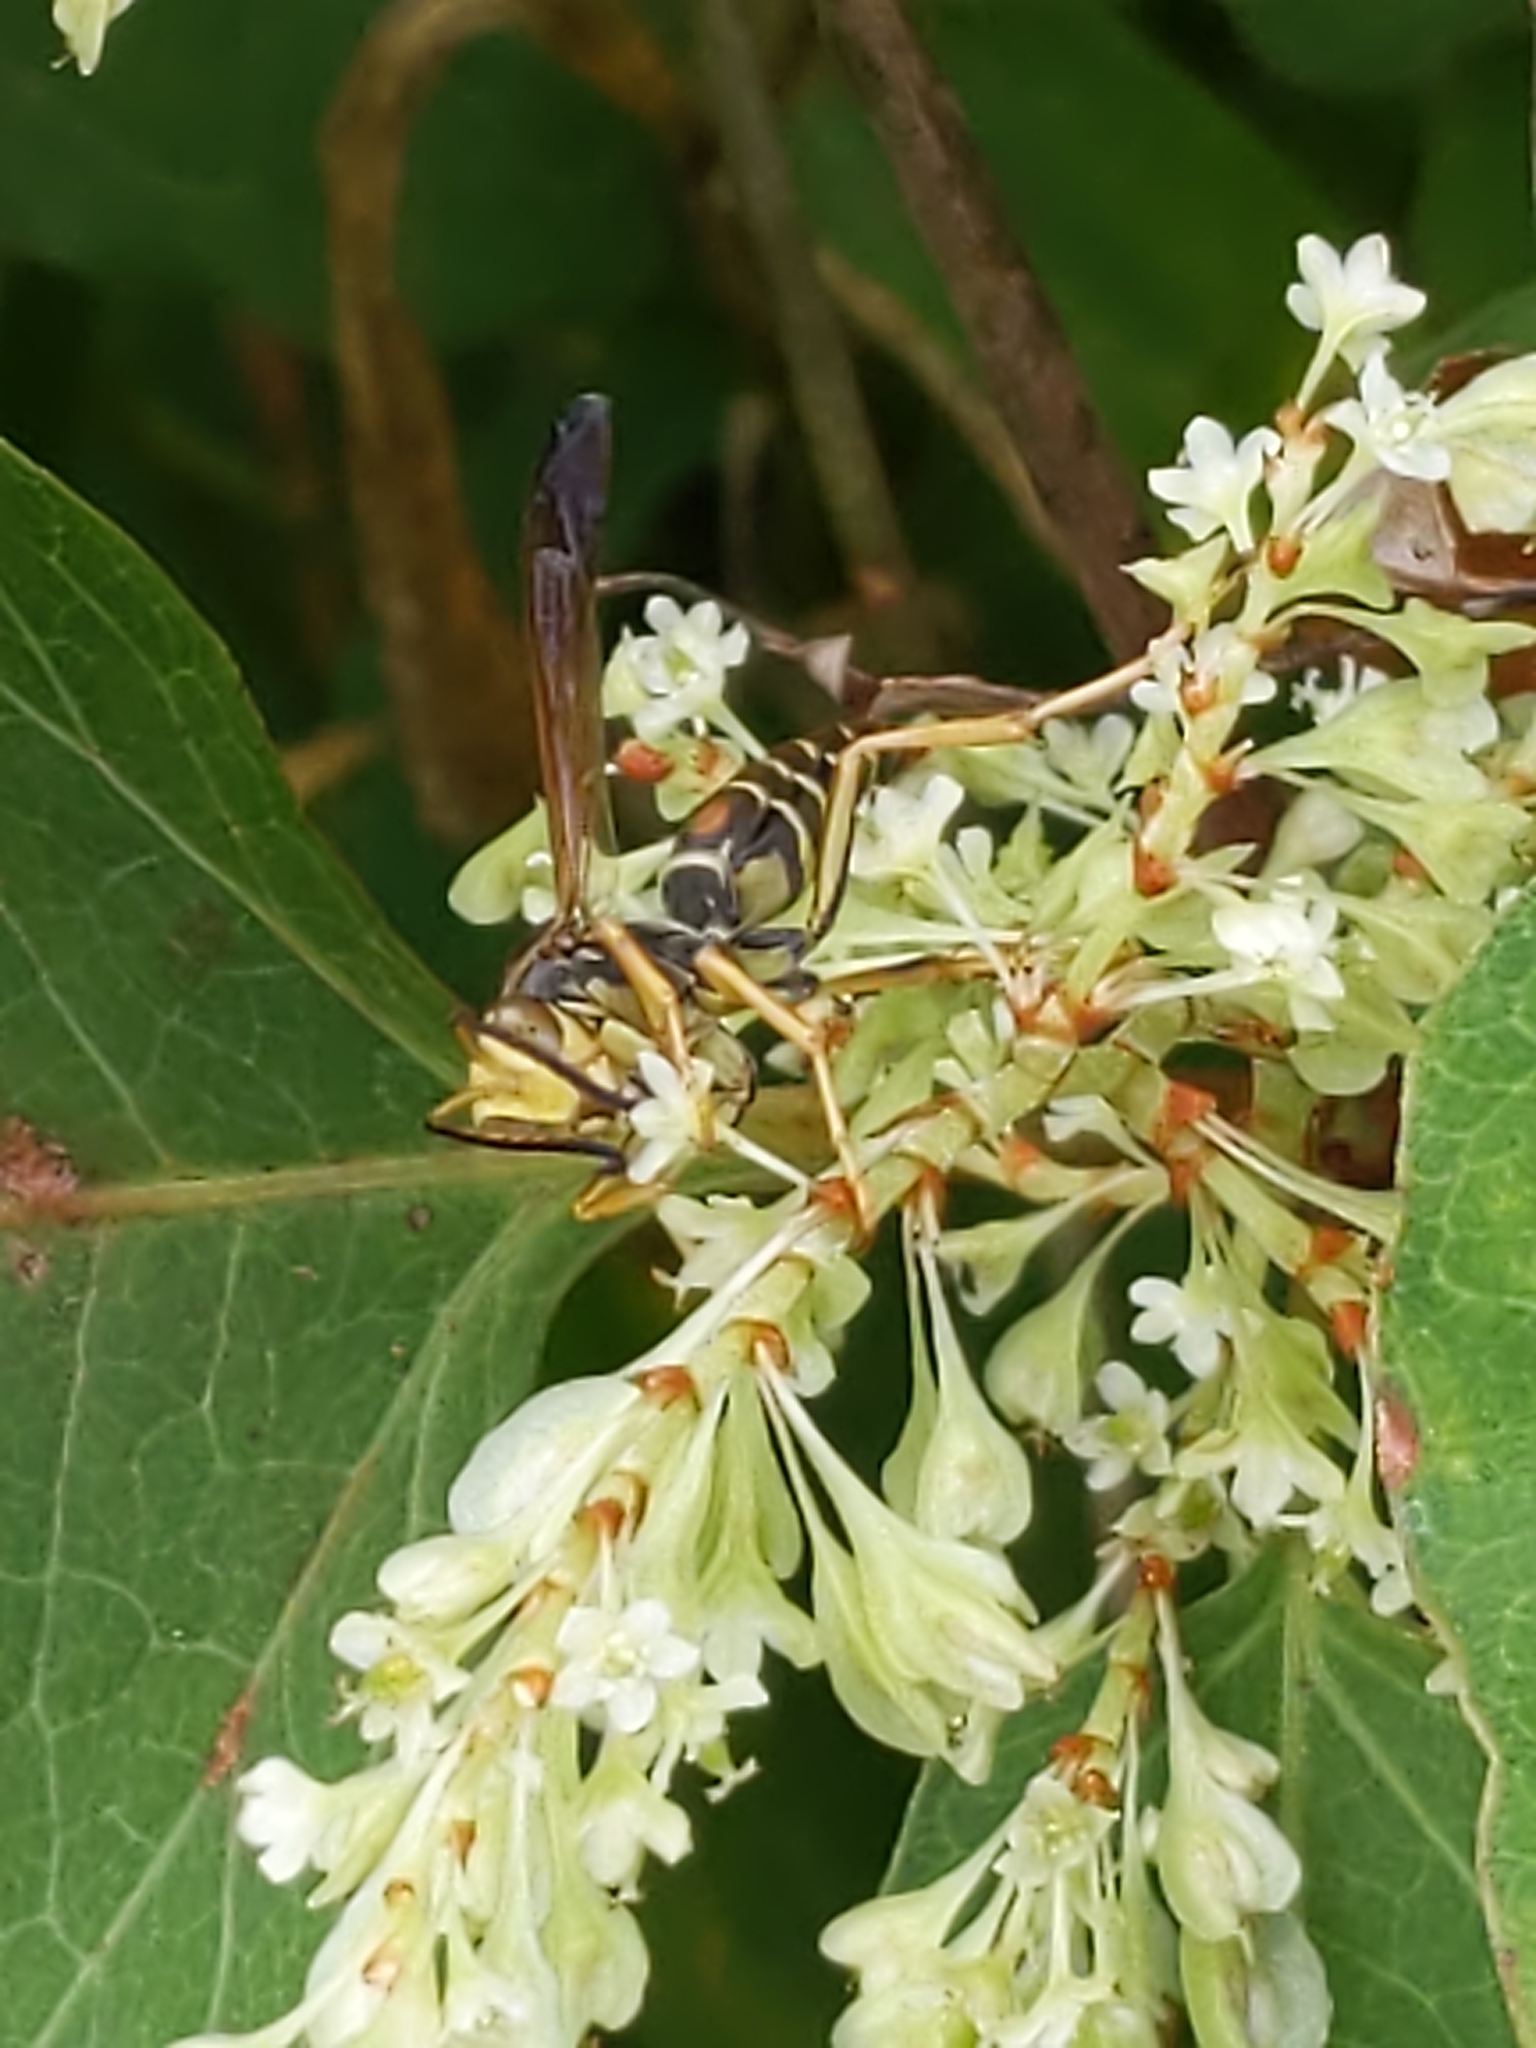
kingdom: Animalia
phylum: Arthropoda
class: Insecta
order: Hymenoptera
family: Eumenidae
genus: Polistes
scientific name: Polistes fuscatus
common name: Dark paper wasp
